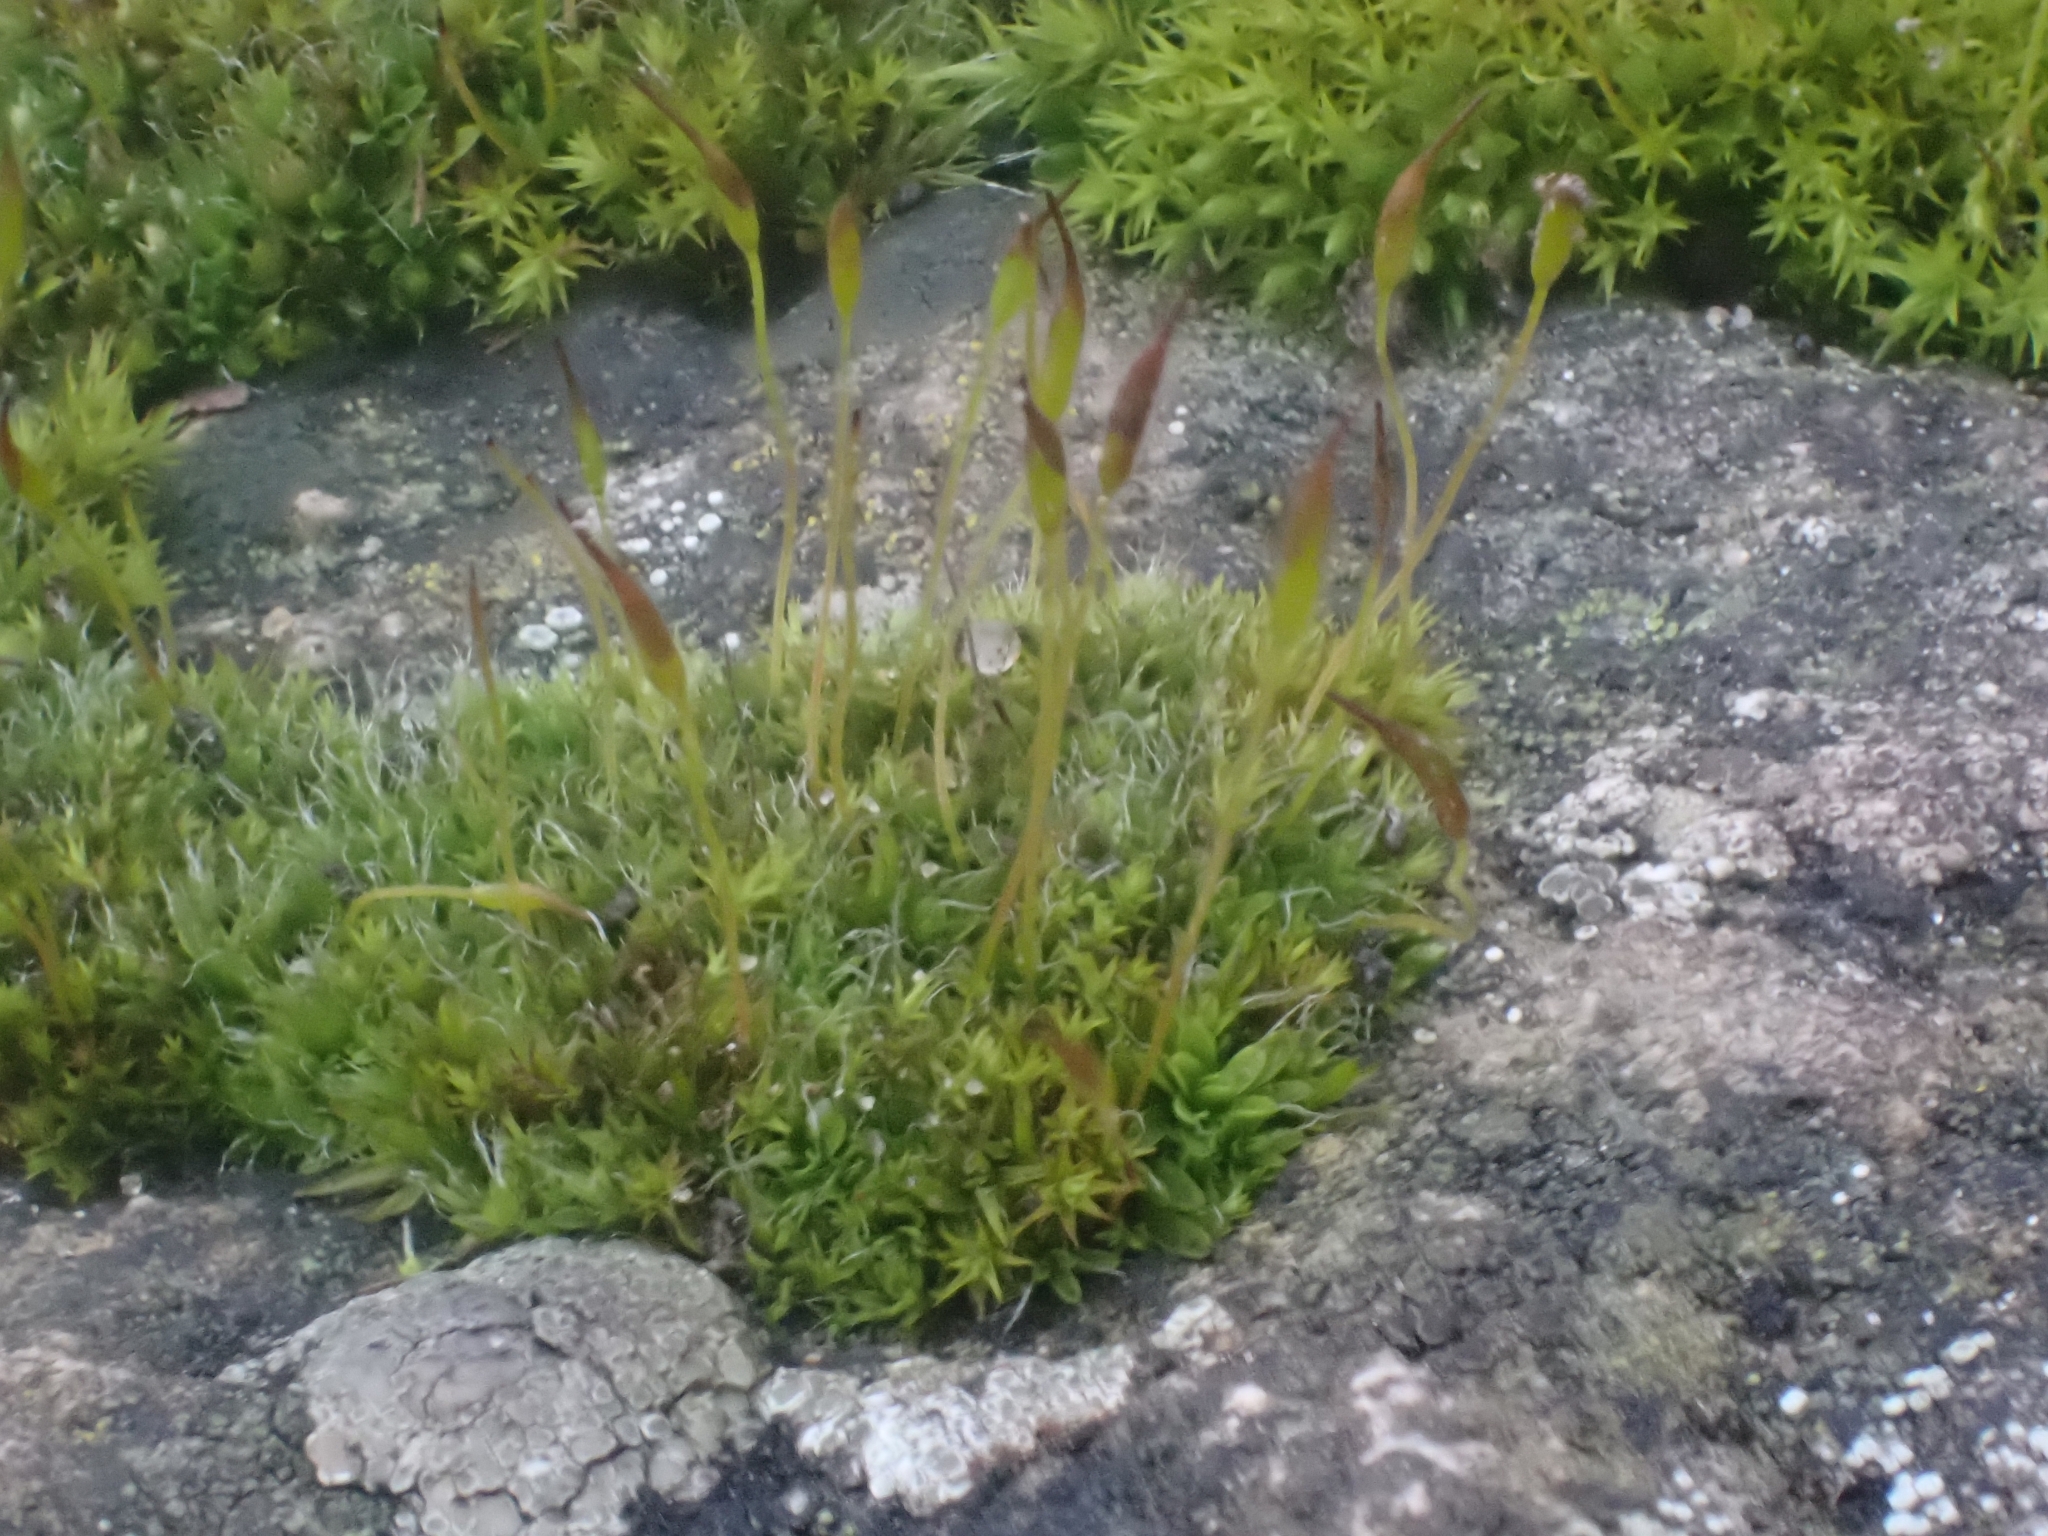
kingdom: Plantae
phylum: Bryophyta
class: Bryopsida
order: Pottiales
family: Pottiaceae
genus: Tortula
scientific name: Tortula muralis
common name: Wall screw-moss
